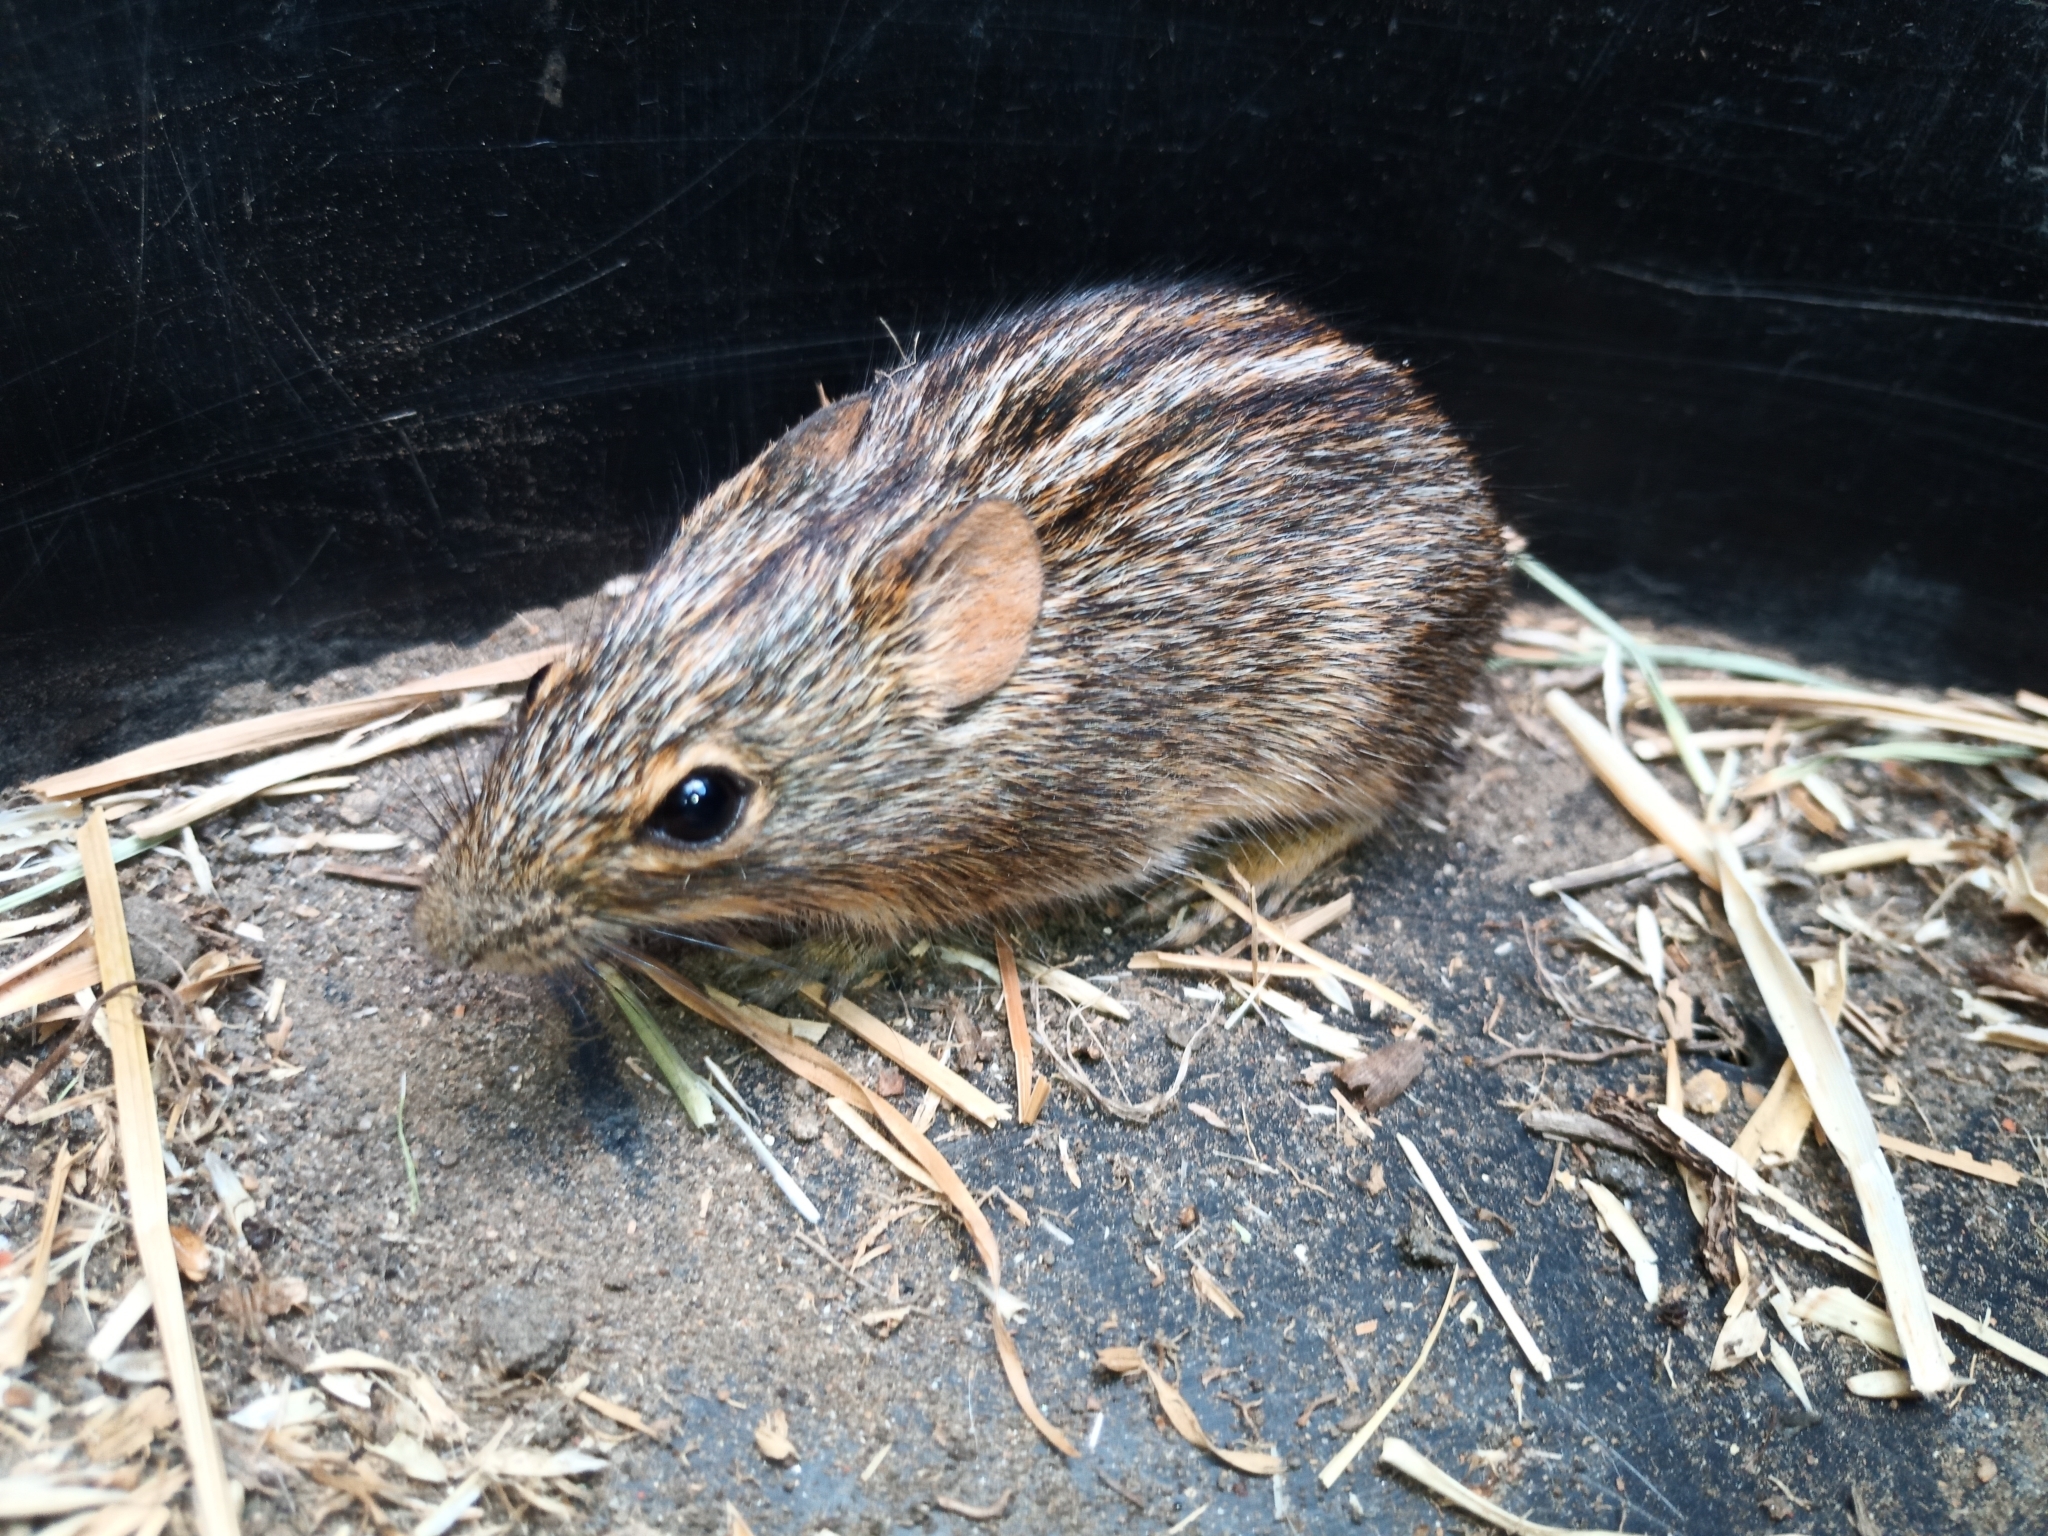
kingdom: Animalia
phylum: Chordata
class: Mammalia
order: Rodentia
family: Muridae
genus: Rhabdomys
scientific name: Rhabdomys pumilio
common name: Xeric four-striped grass rat
